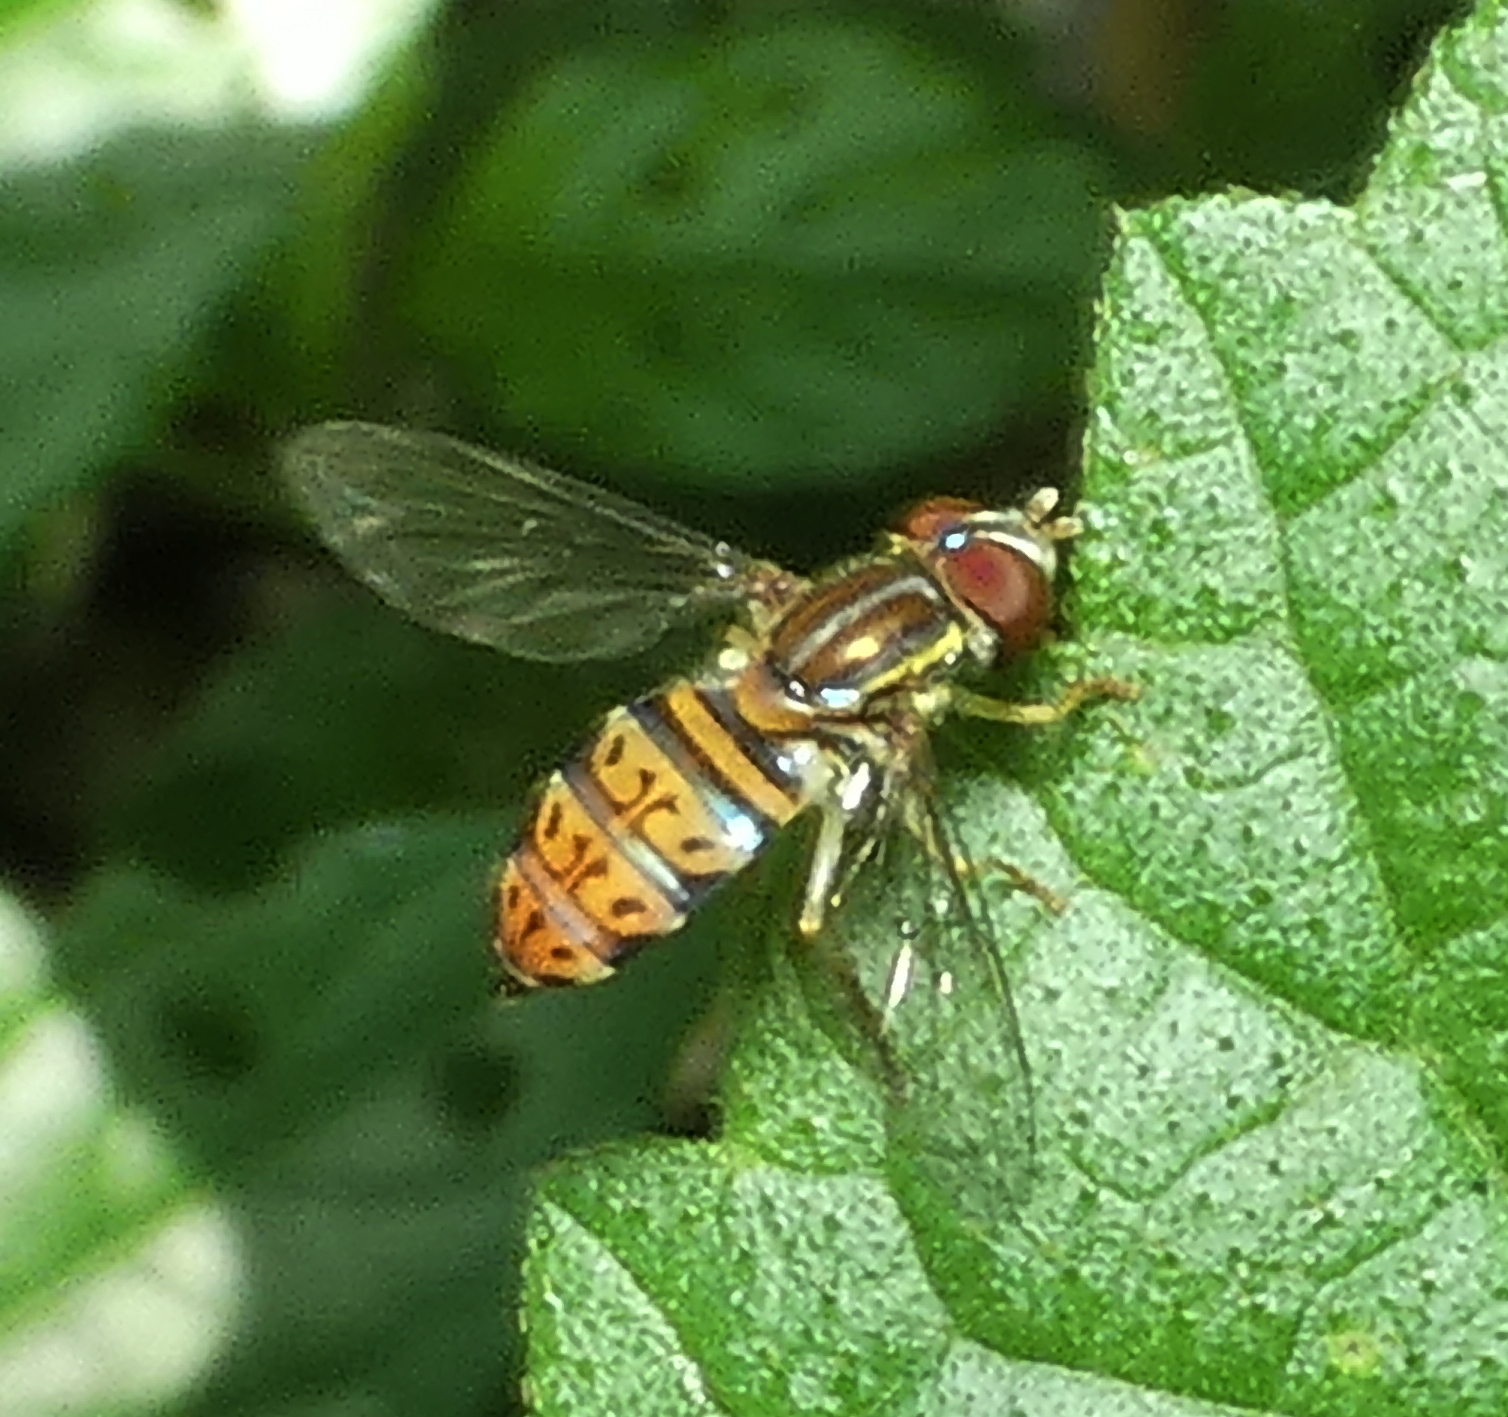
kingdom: Animalia
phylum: Arthropoda
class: Insecta
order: Diptera
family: Syrphidae
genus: Toxomerus
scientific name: Toxomerus pulchellus
